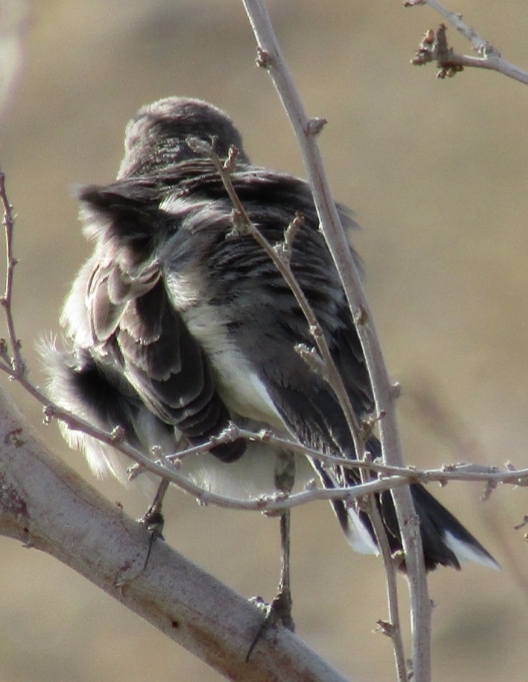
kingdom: Animalia
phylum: Chordata
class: Aves
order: Passeriformes
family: Mimidae
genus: Mimus
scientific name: Mimus polyglottos
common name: Northern mockingbird
